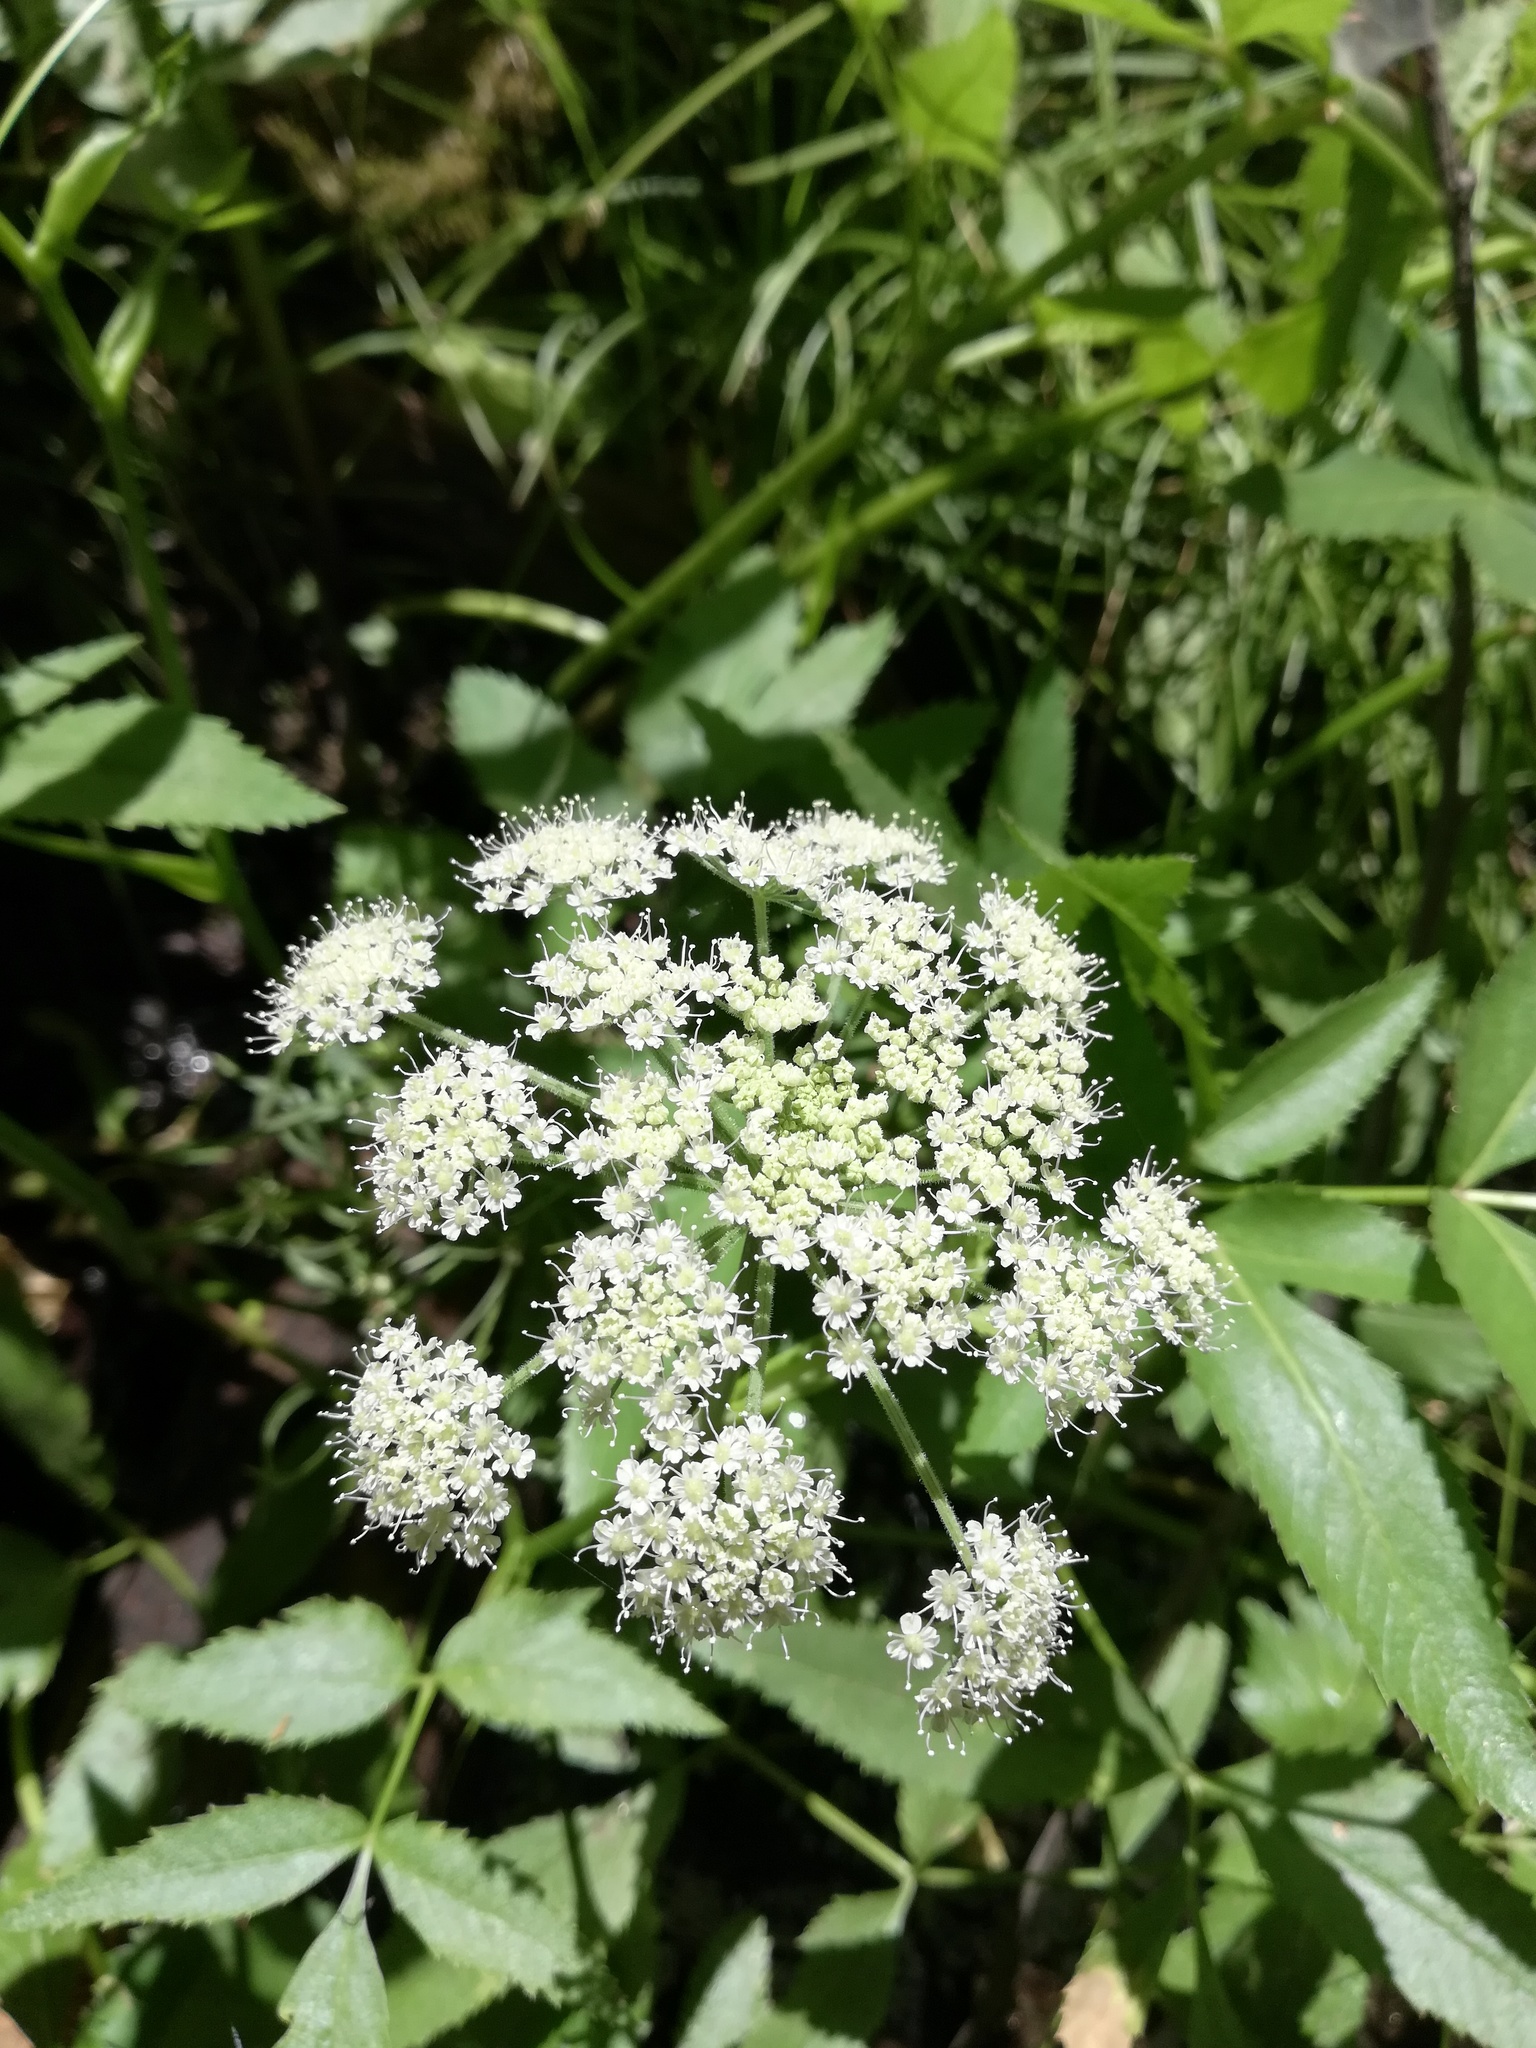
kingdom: Plantae
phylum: Tracheophyta
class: Magnoliopsida
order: Apiales
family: Apiaceae
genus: Cicuta
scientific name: Cicuta douglasii
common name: Western water-hemlock
